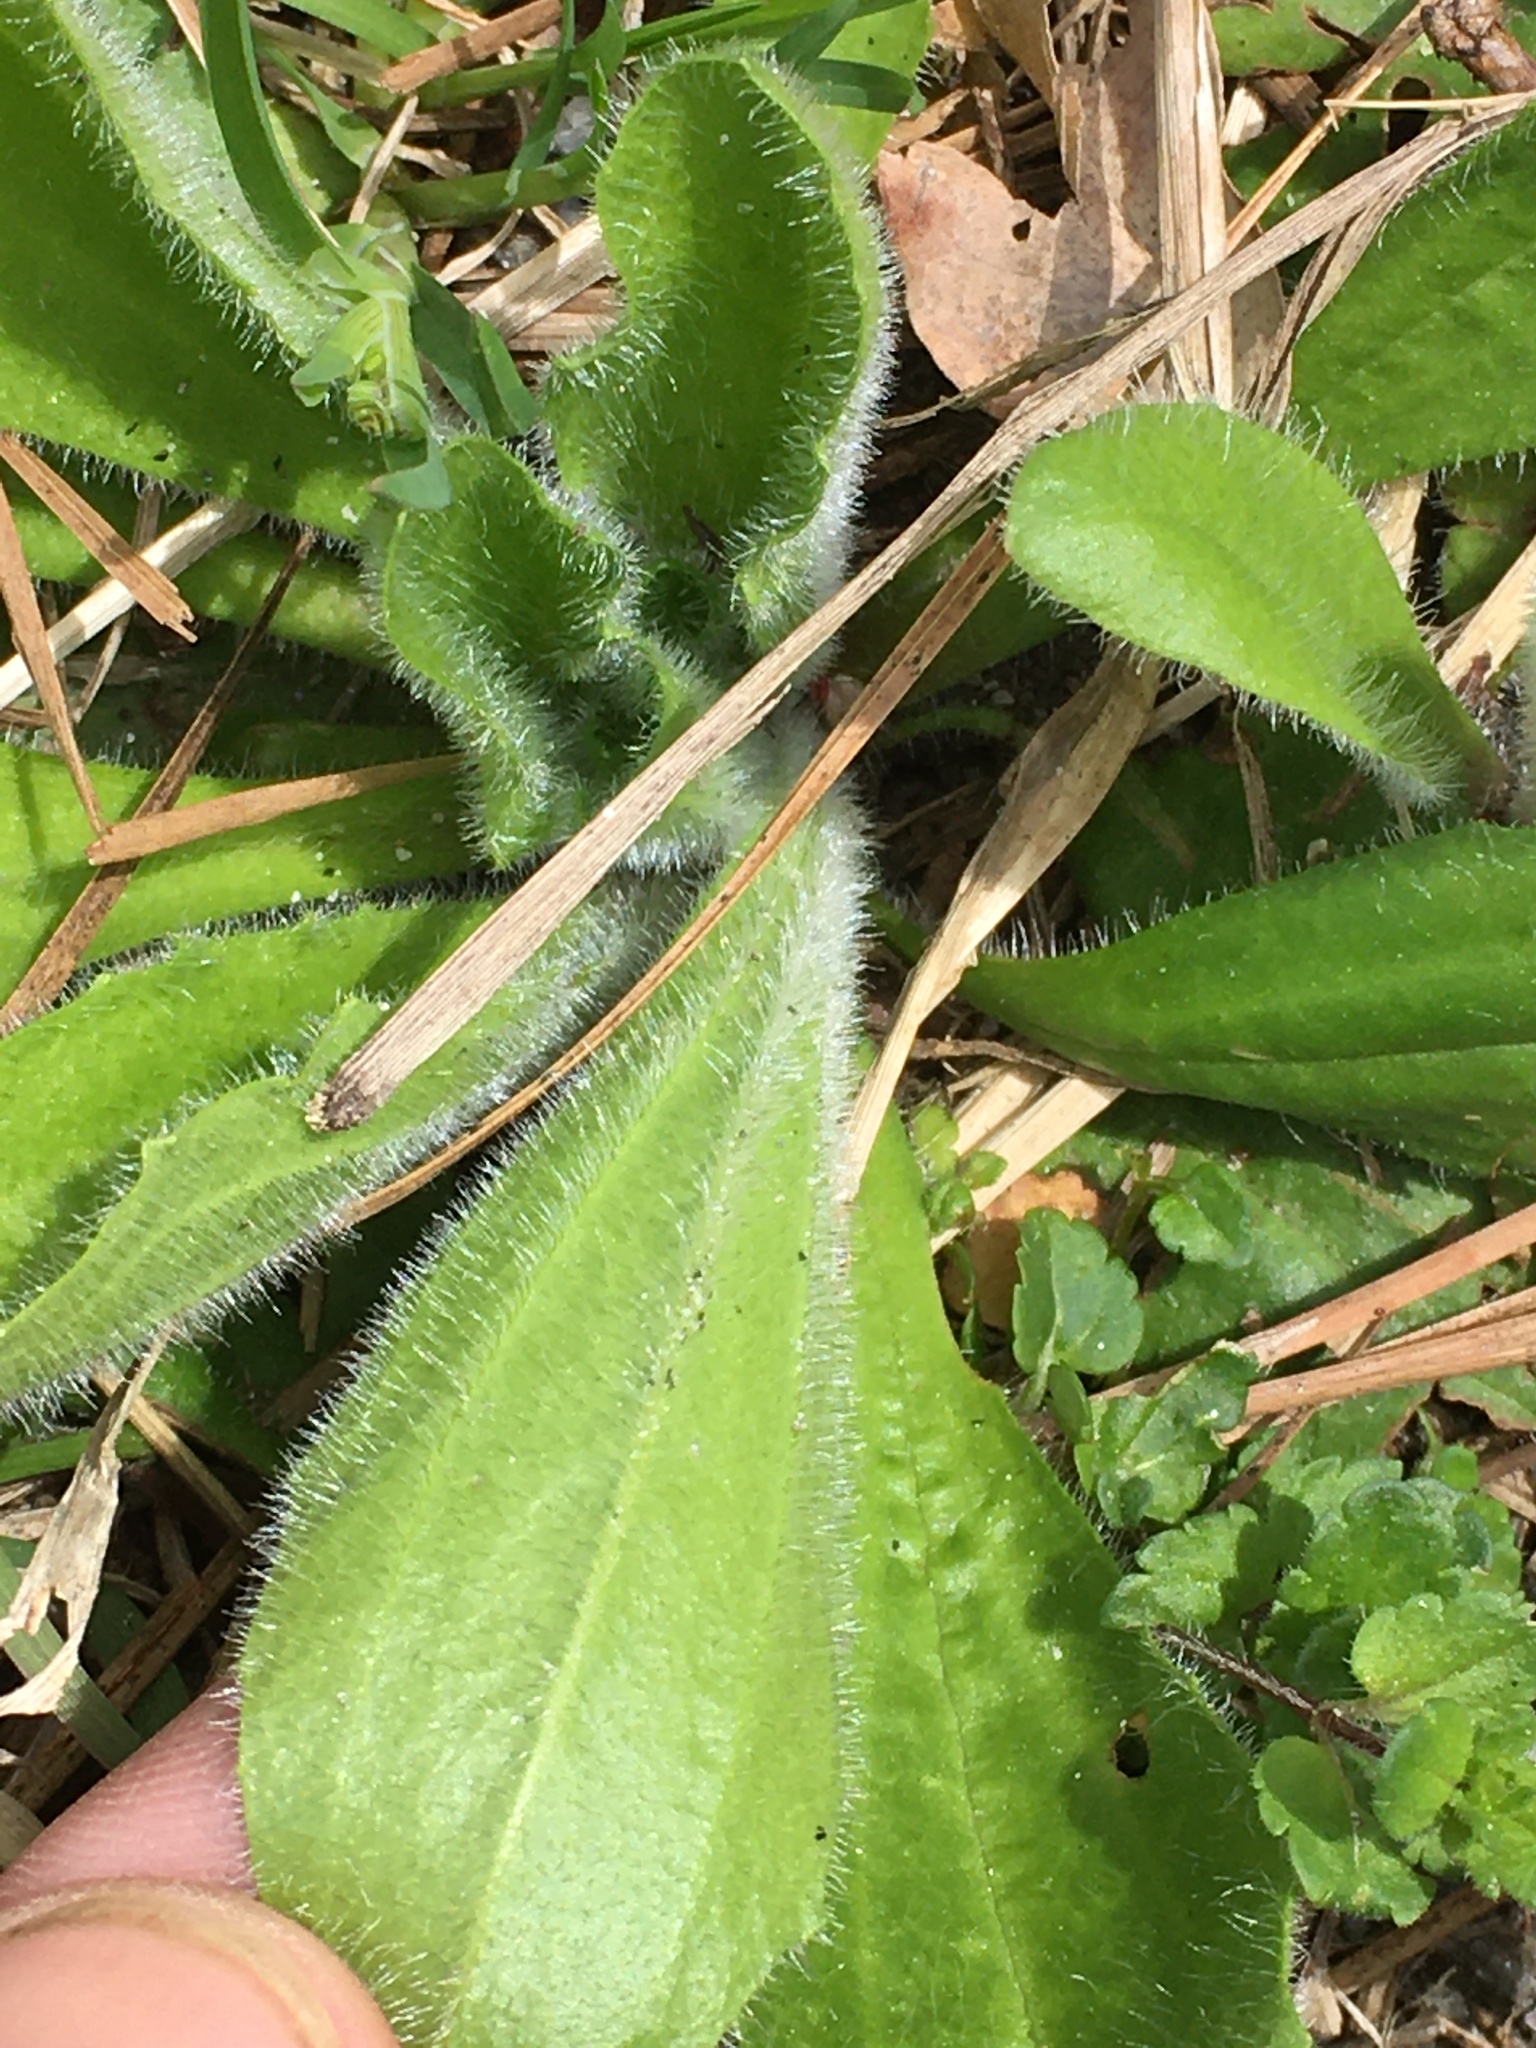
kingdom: Plantae
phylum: Tracheophyta
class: Magnoliopsida
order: Lamiales
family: Plantaginaceae
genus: Plantago
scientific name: Plantago virginica
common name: Hoary plantain
